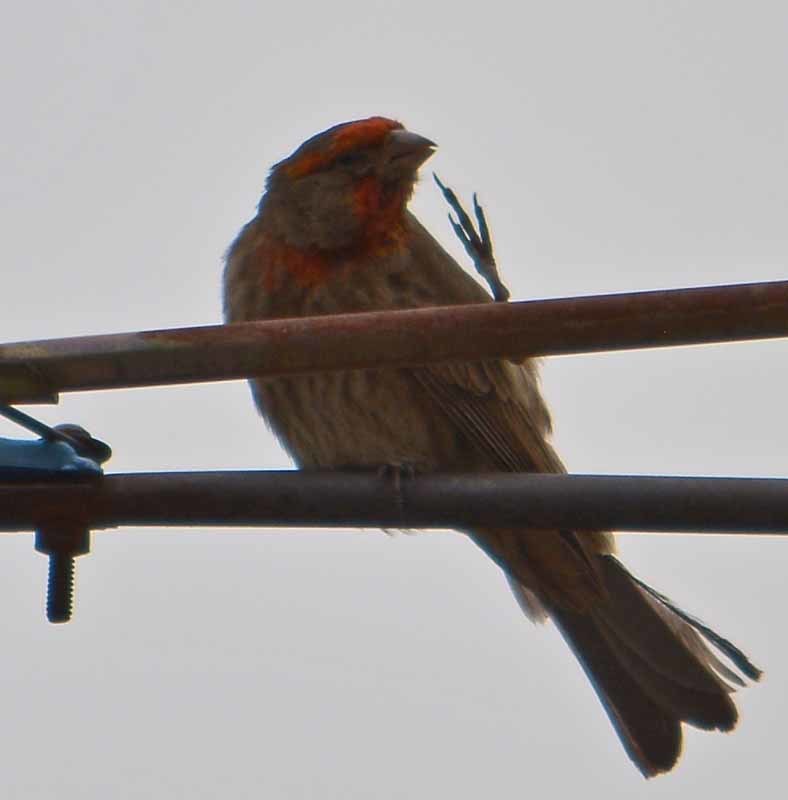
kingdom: Animalia
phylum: Chordata
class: Aves
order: Passeriformes
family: Fringillidae
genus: Haemorhous
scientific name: Haemorhous mexicanus
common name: House finch
